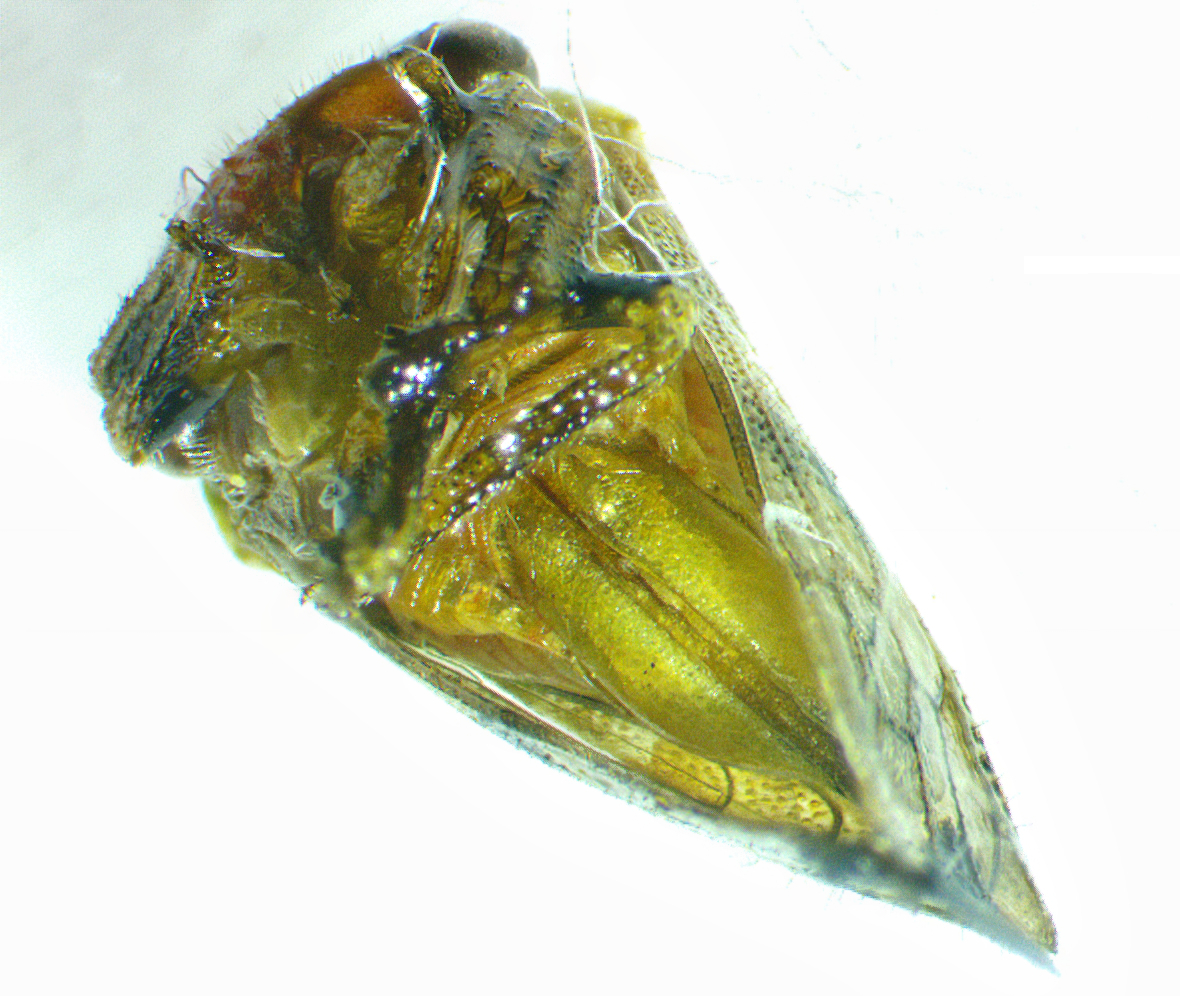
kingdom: Animalia
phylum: Arthropoda
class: Insecta
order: Hemiptera
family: Membracidae
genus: Ophiderma
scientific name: Ophiderma definita
